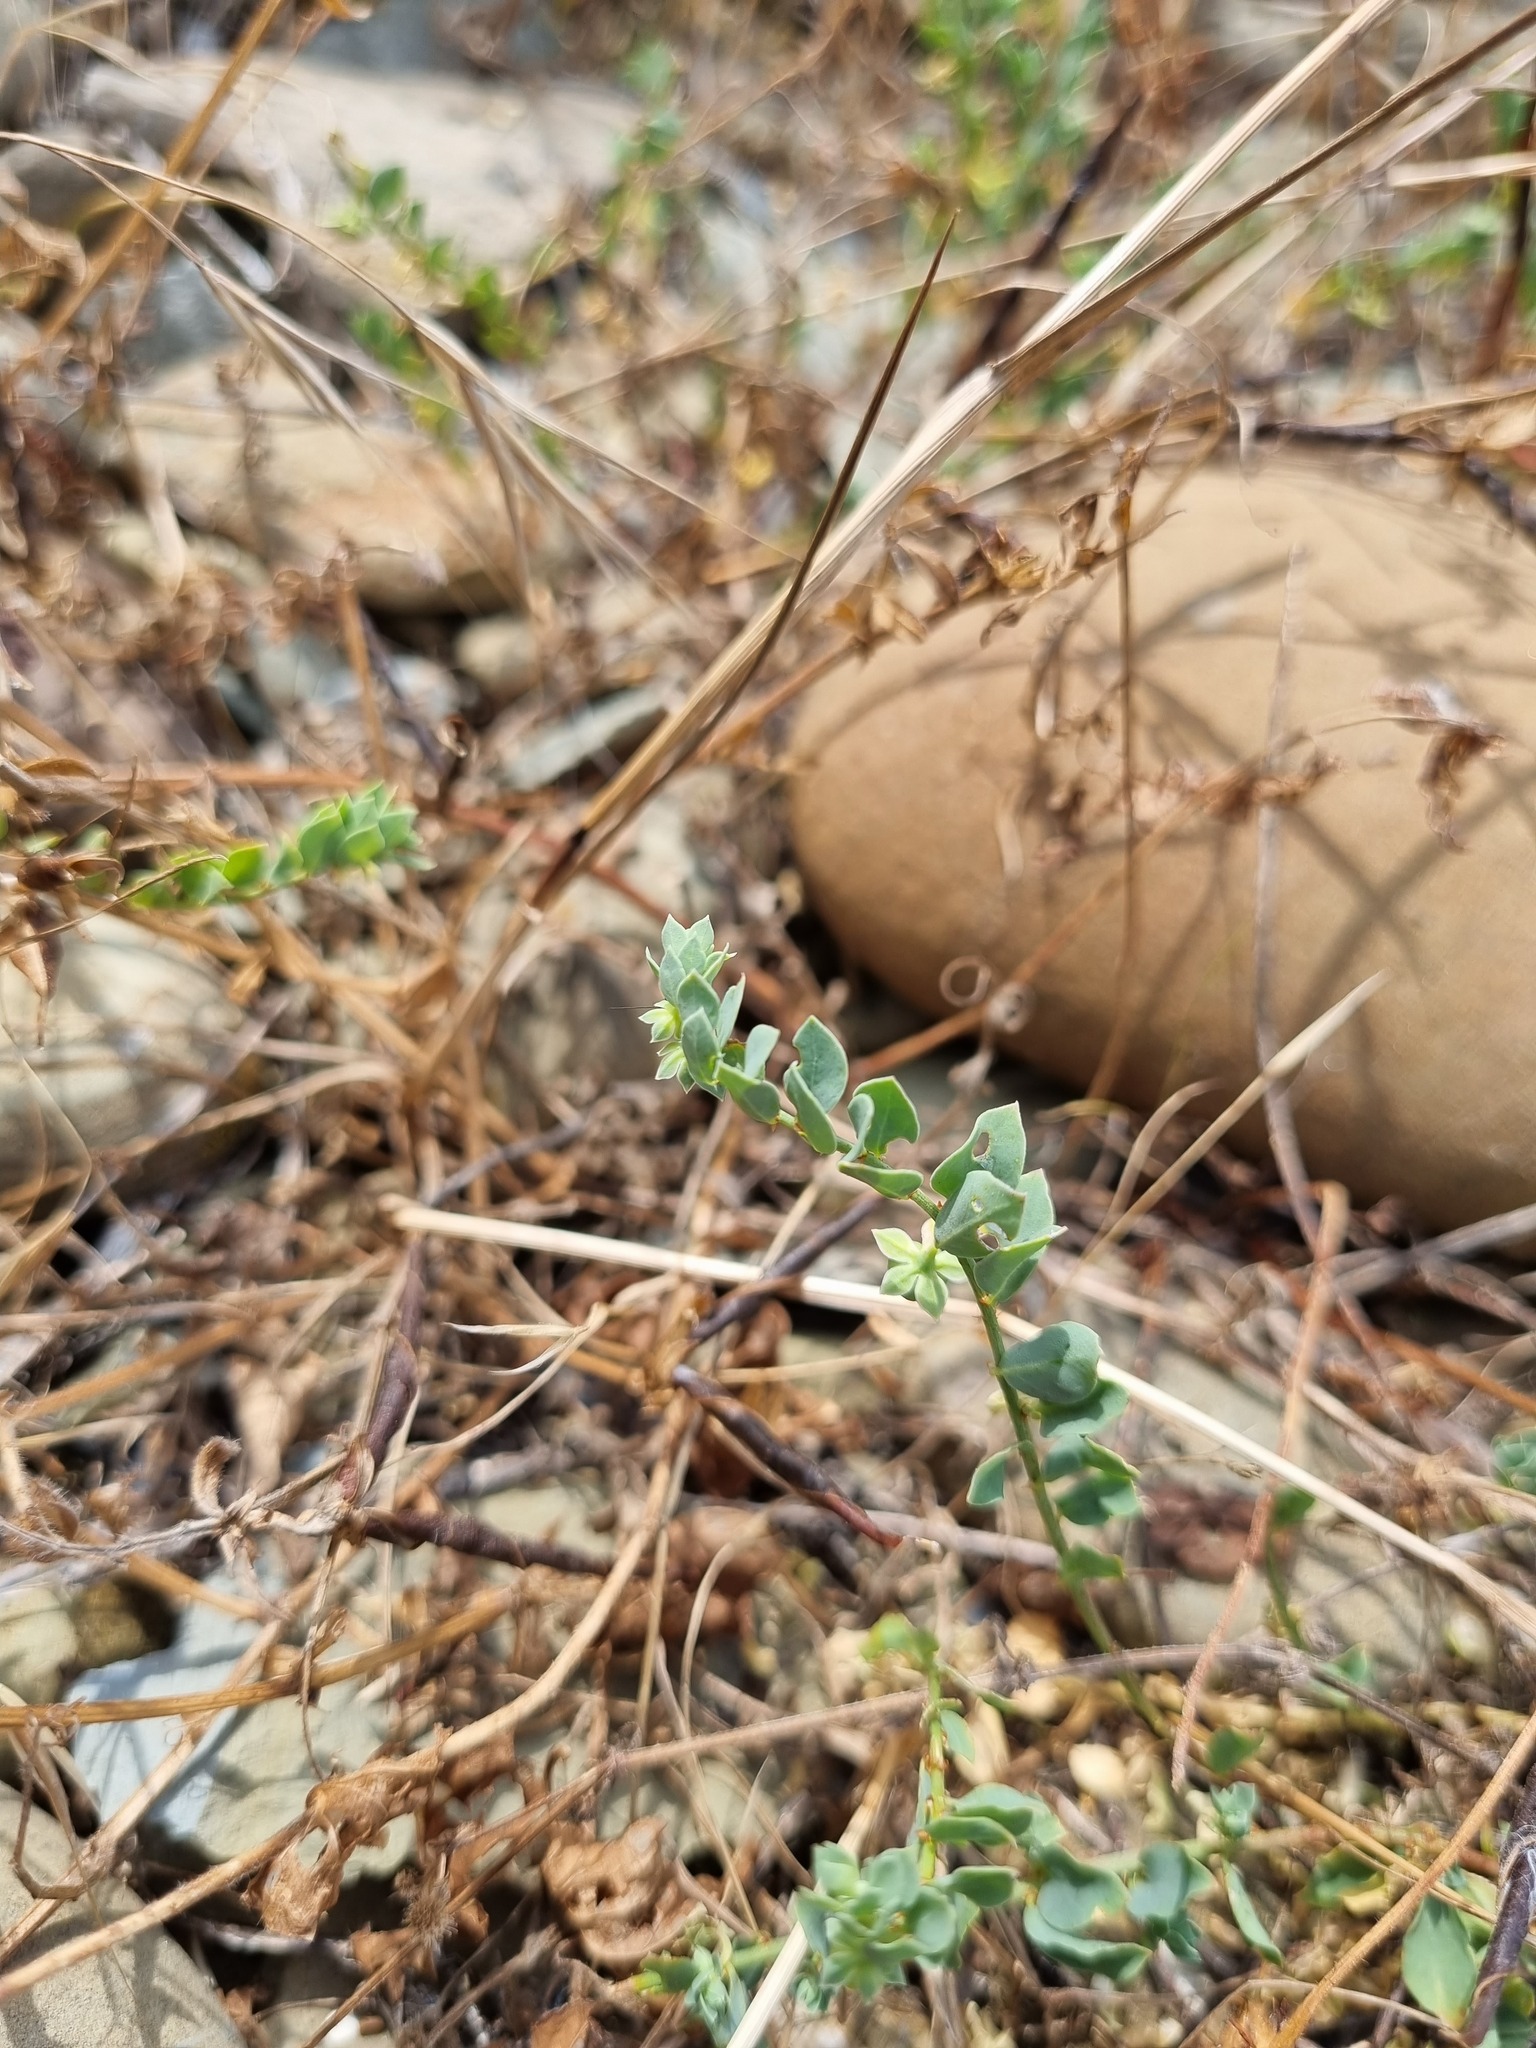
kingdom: Plantae
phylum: Tracheophyta
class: Magnoliopsida
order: Malpighiales
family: Phyllanthaceae
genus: Andrachne
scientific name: Andrachne telephioides
